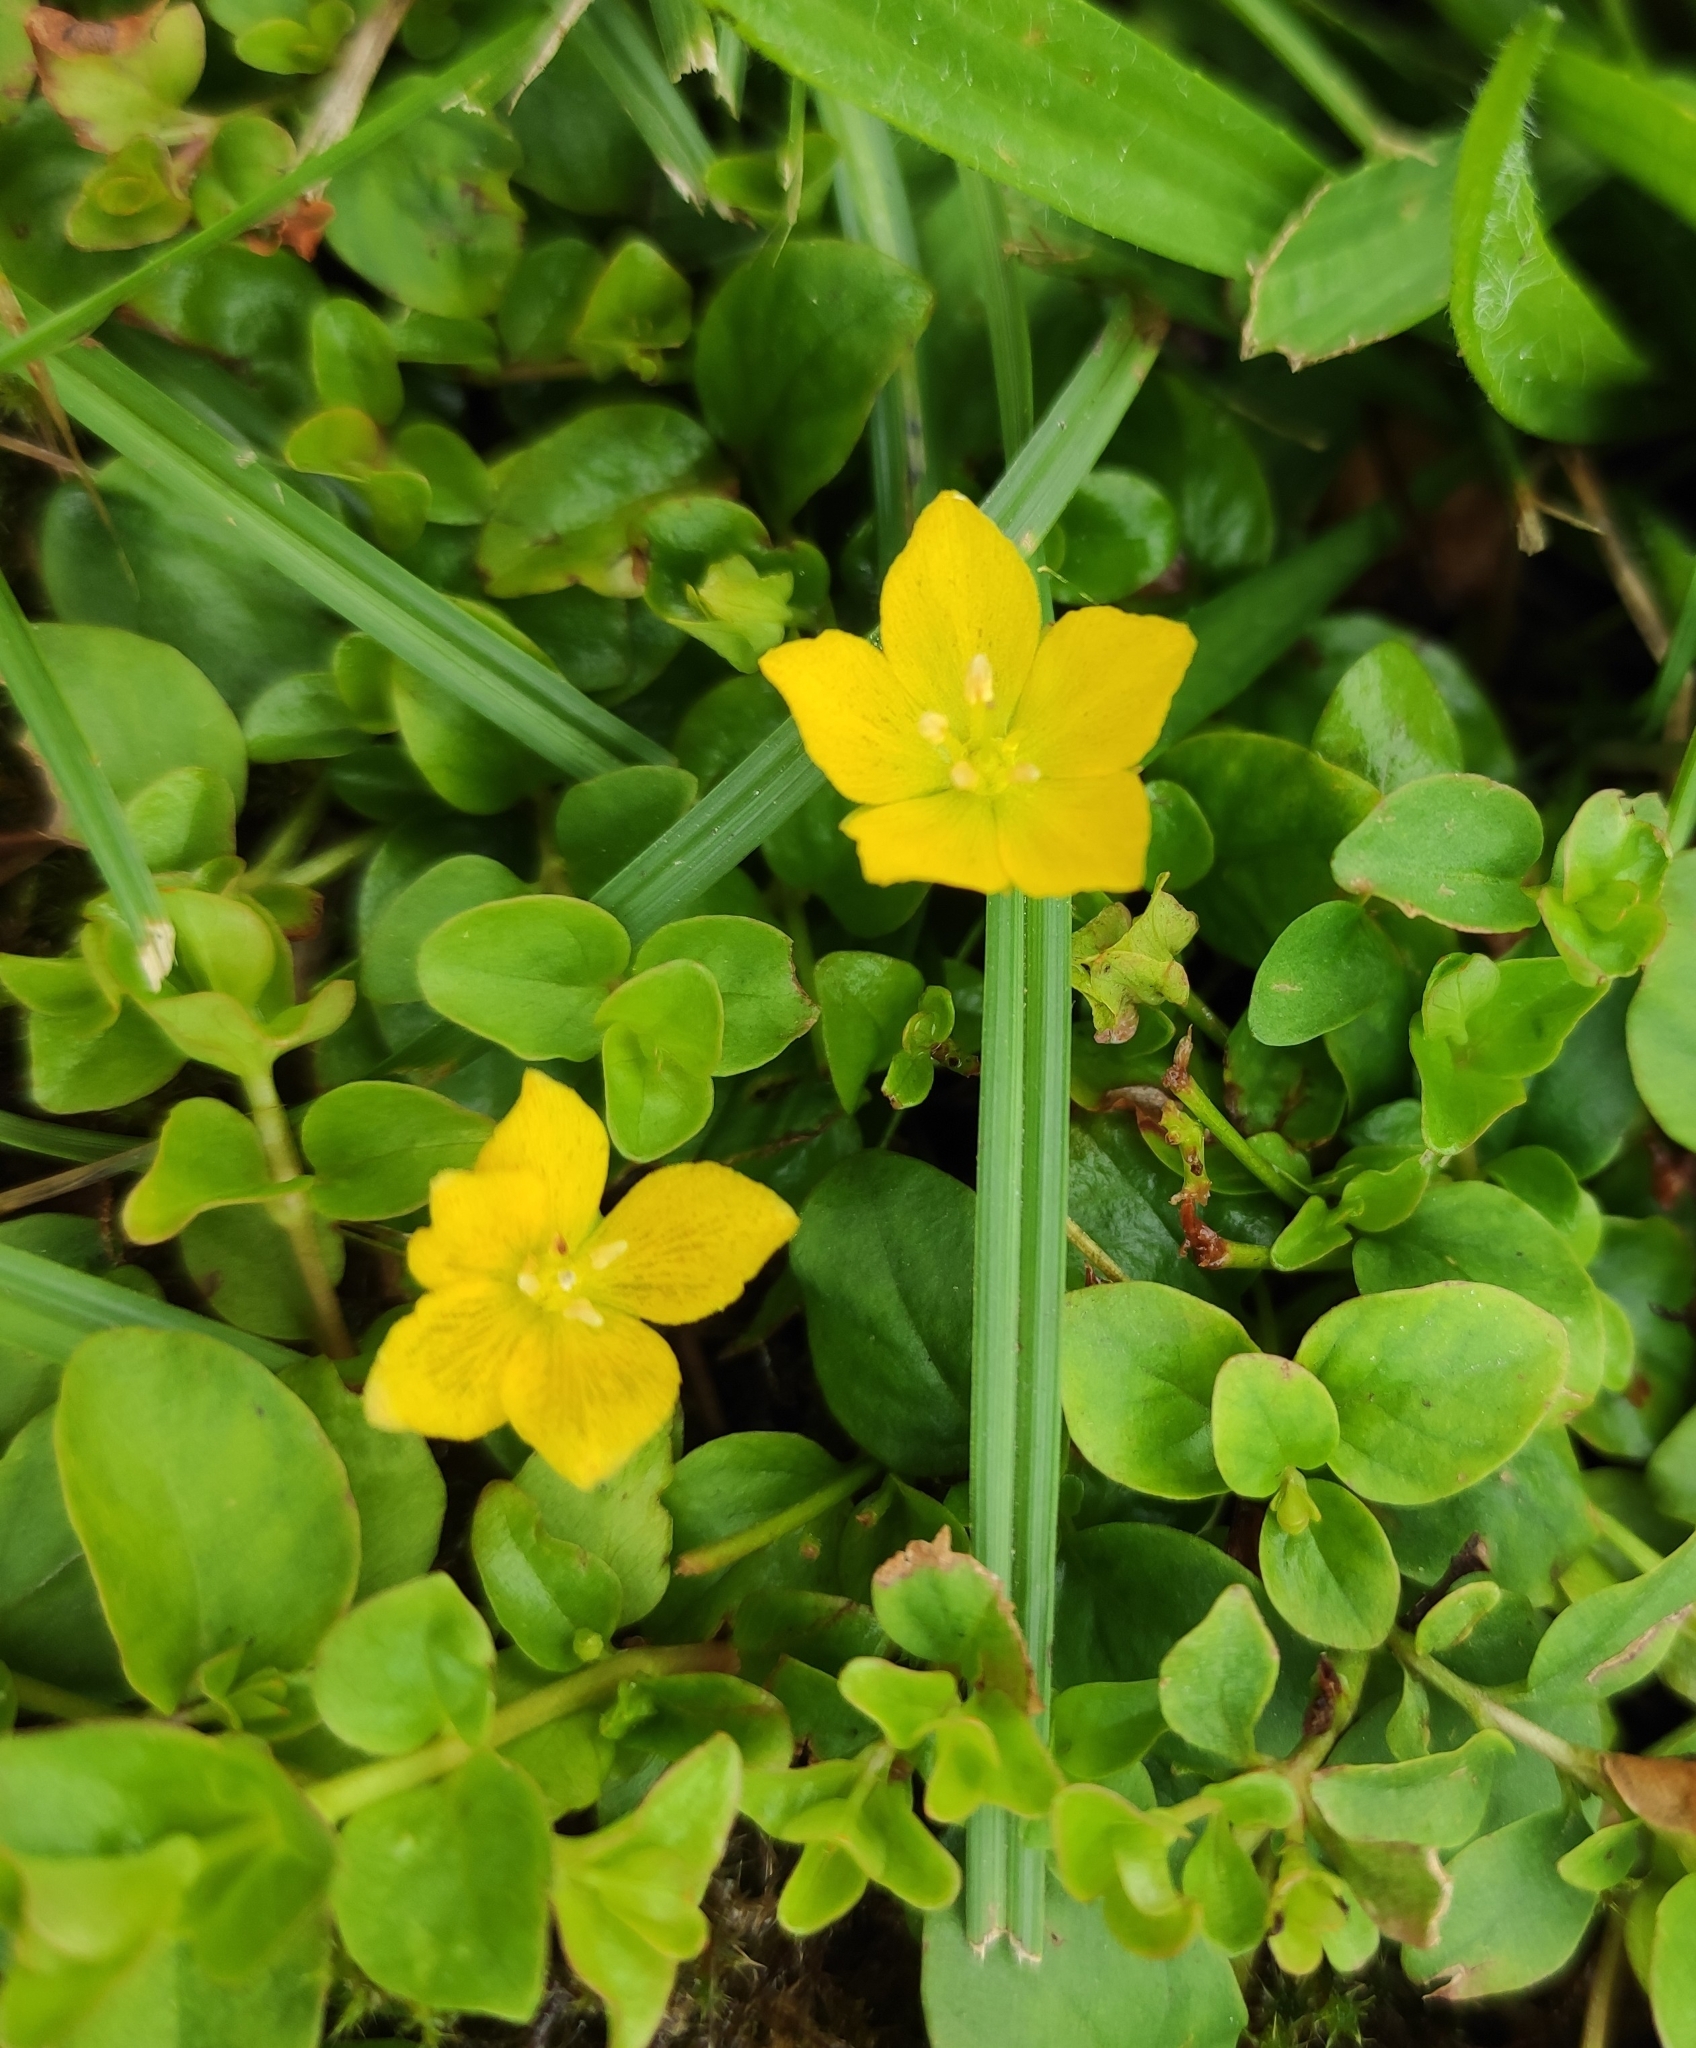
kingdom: Plantae
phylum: Tracheophyta
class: Magnoliopsida
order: Ericales
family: Primulaceae
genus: Lysimachia
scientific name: Lysimachia nummularia
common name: Moneywort
